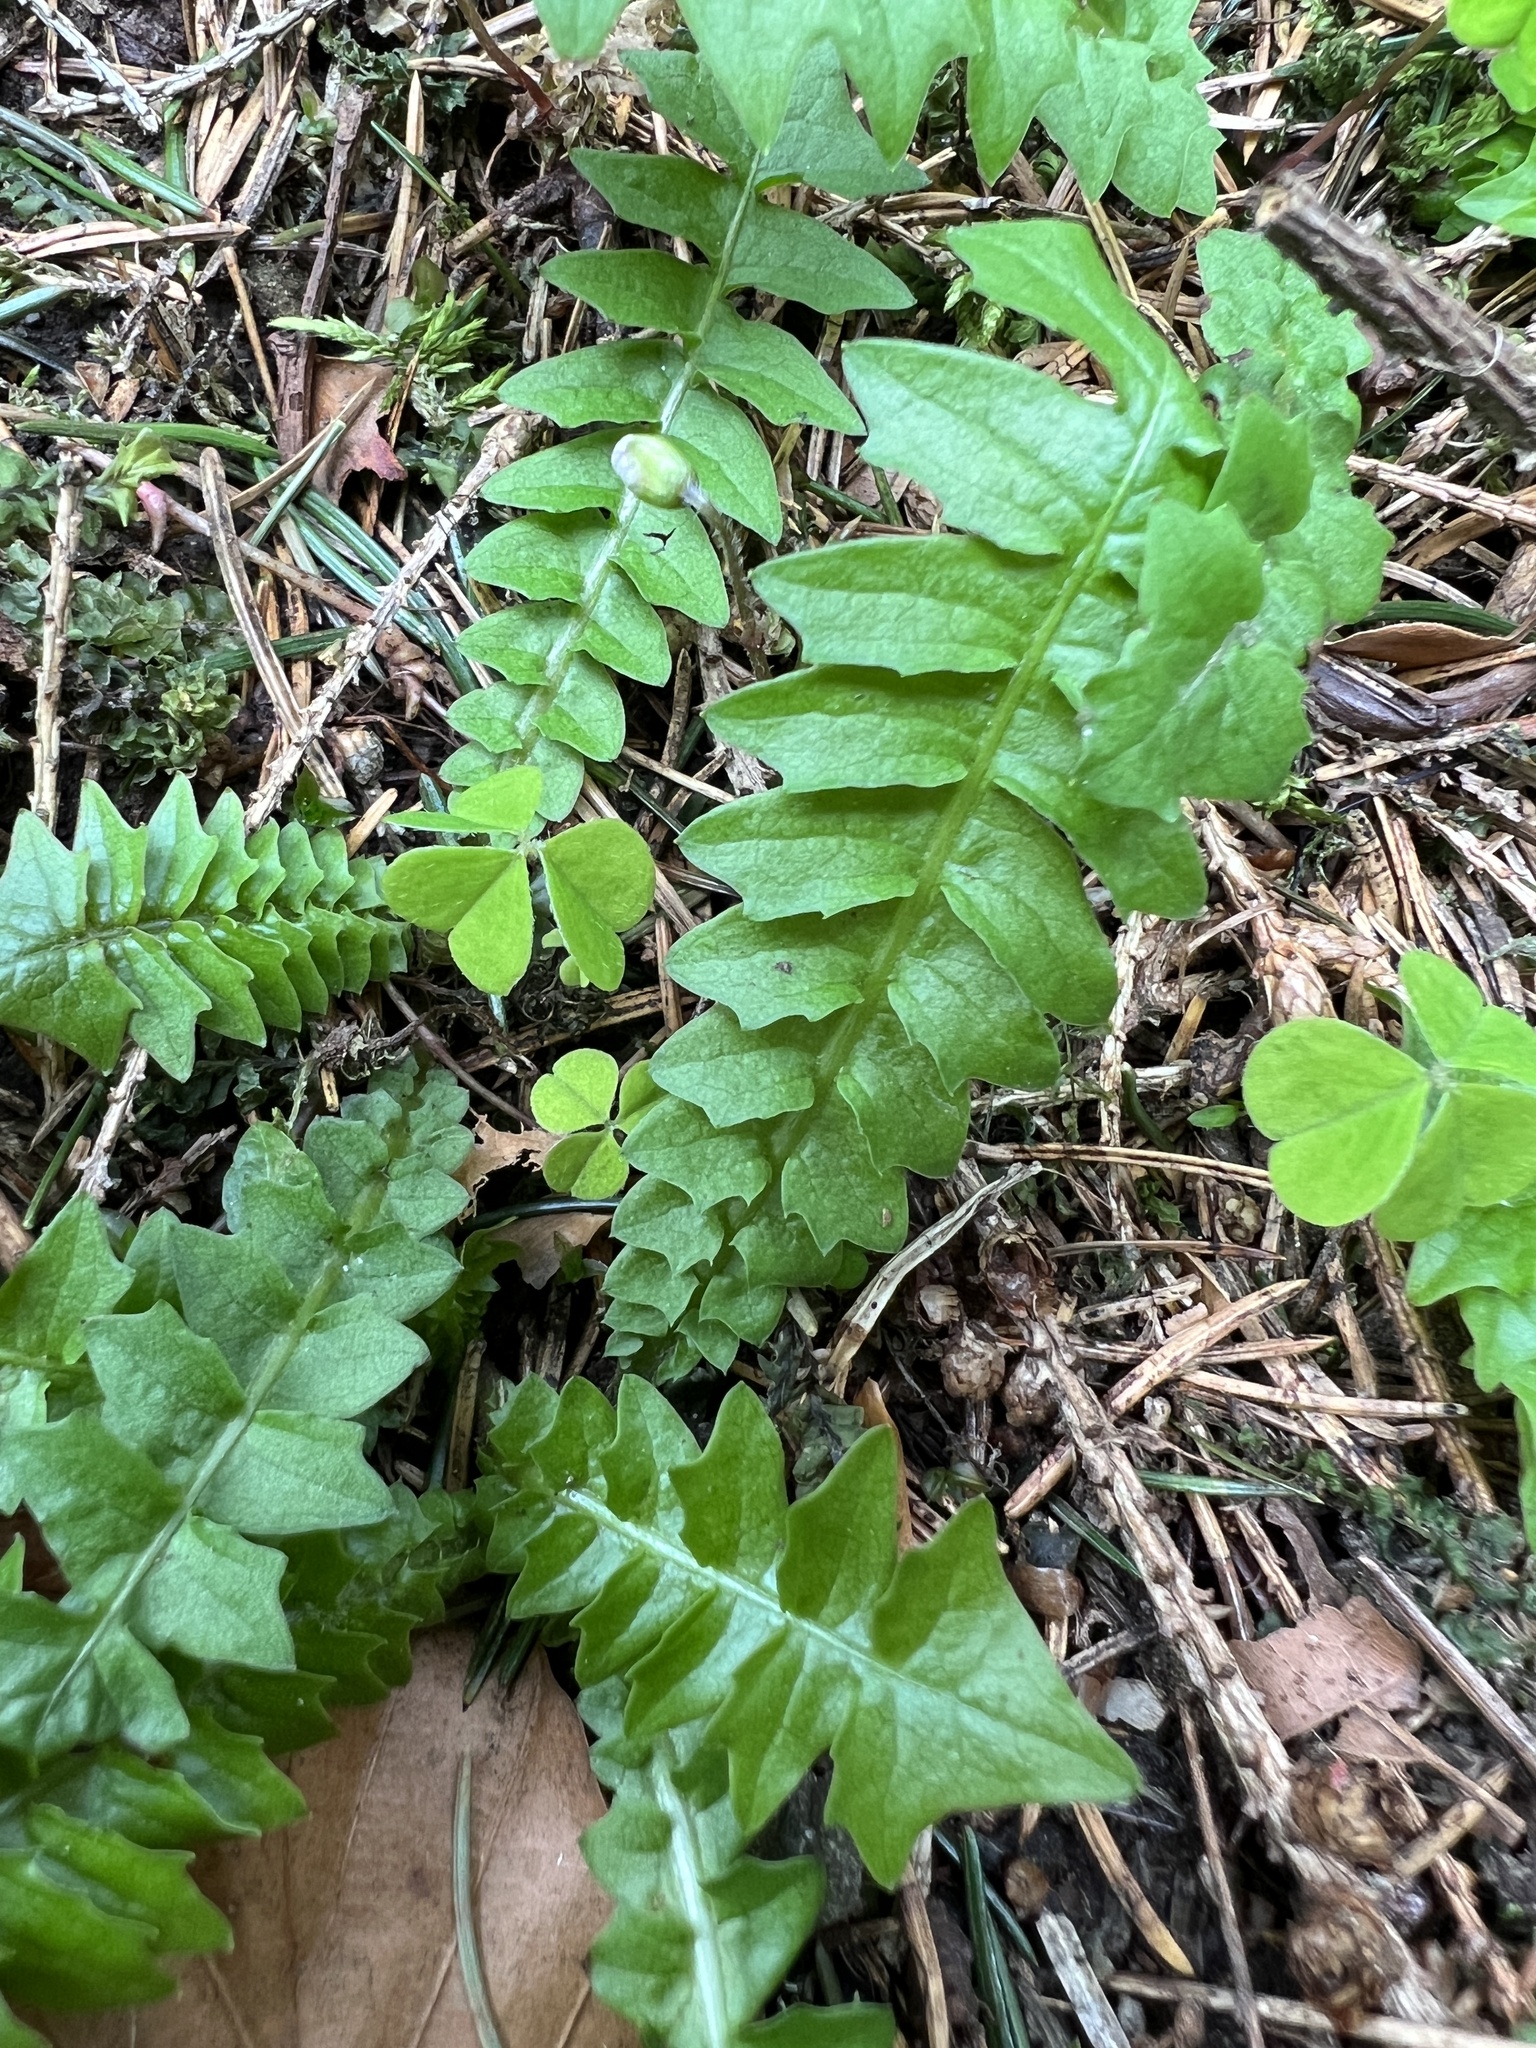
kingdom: Plantae
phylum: Tracheophyta
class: Magnoliopsida
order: Asterales
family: Asteraceae
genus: Aposeris
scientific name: Aposeris foetida
